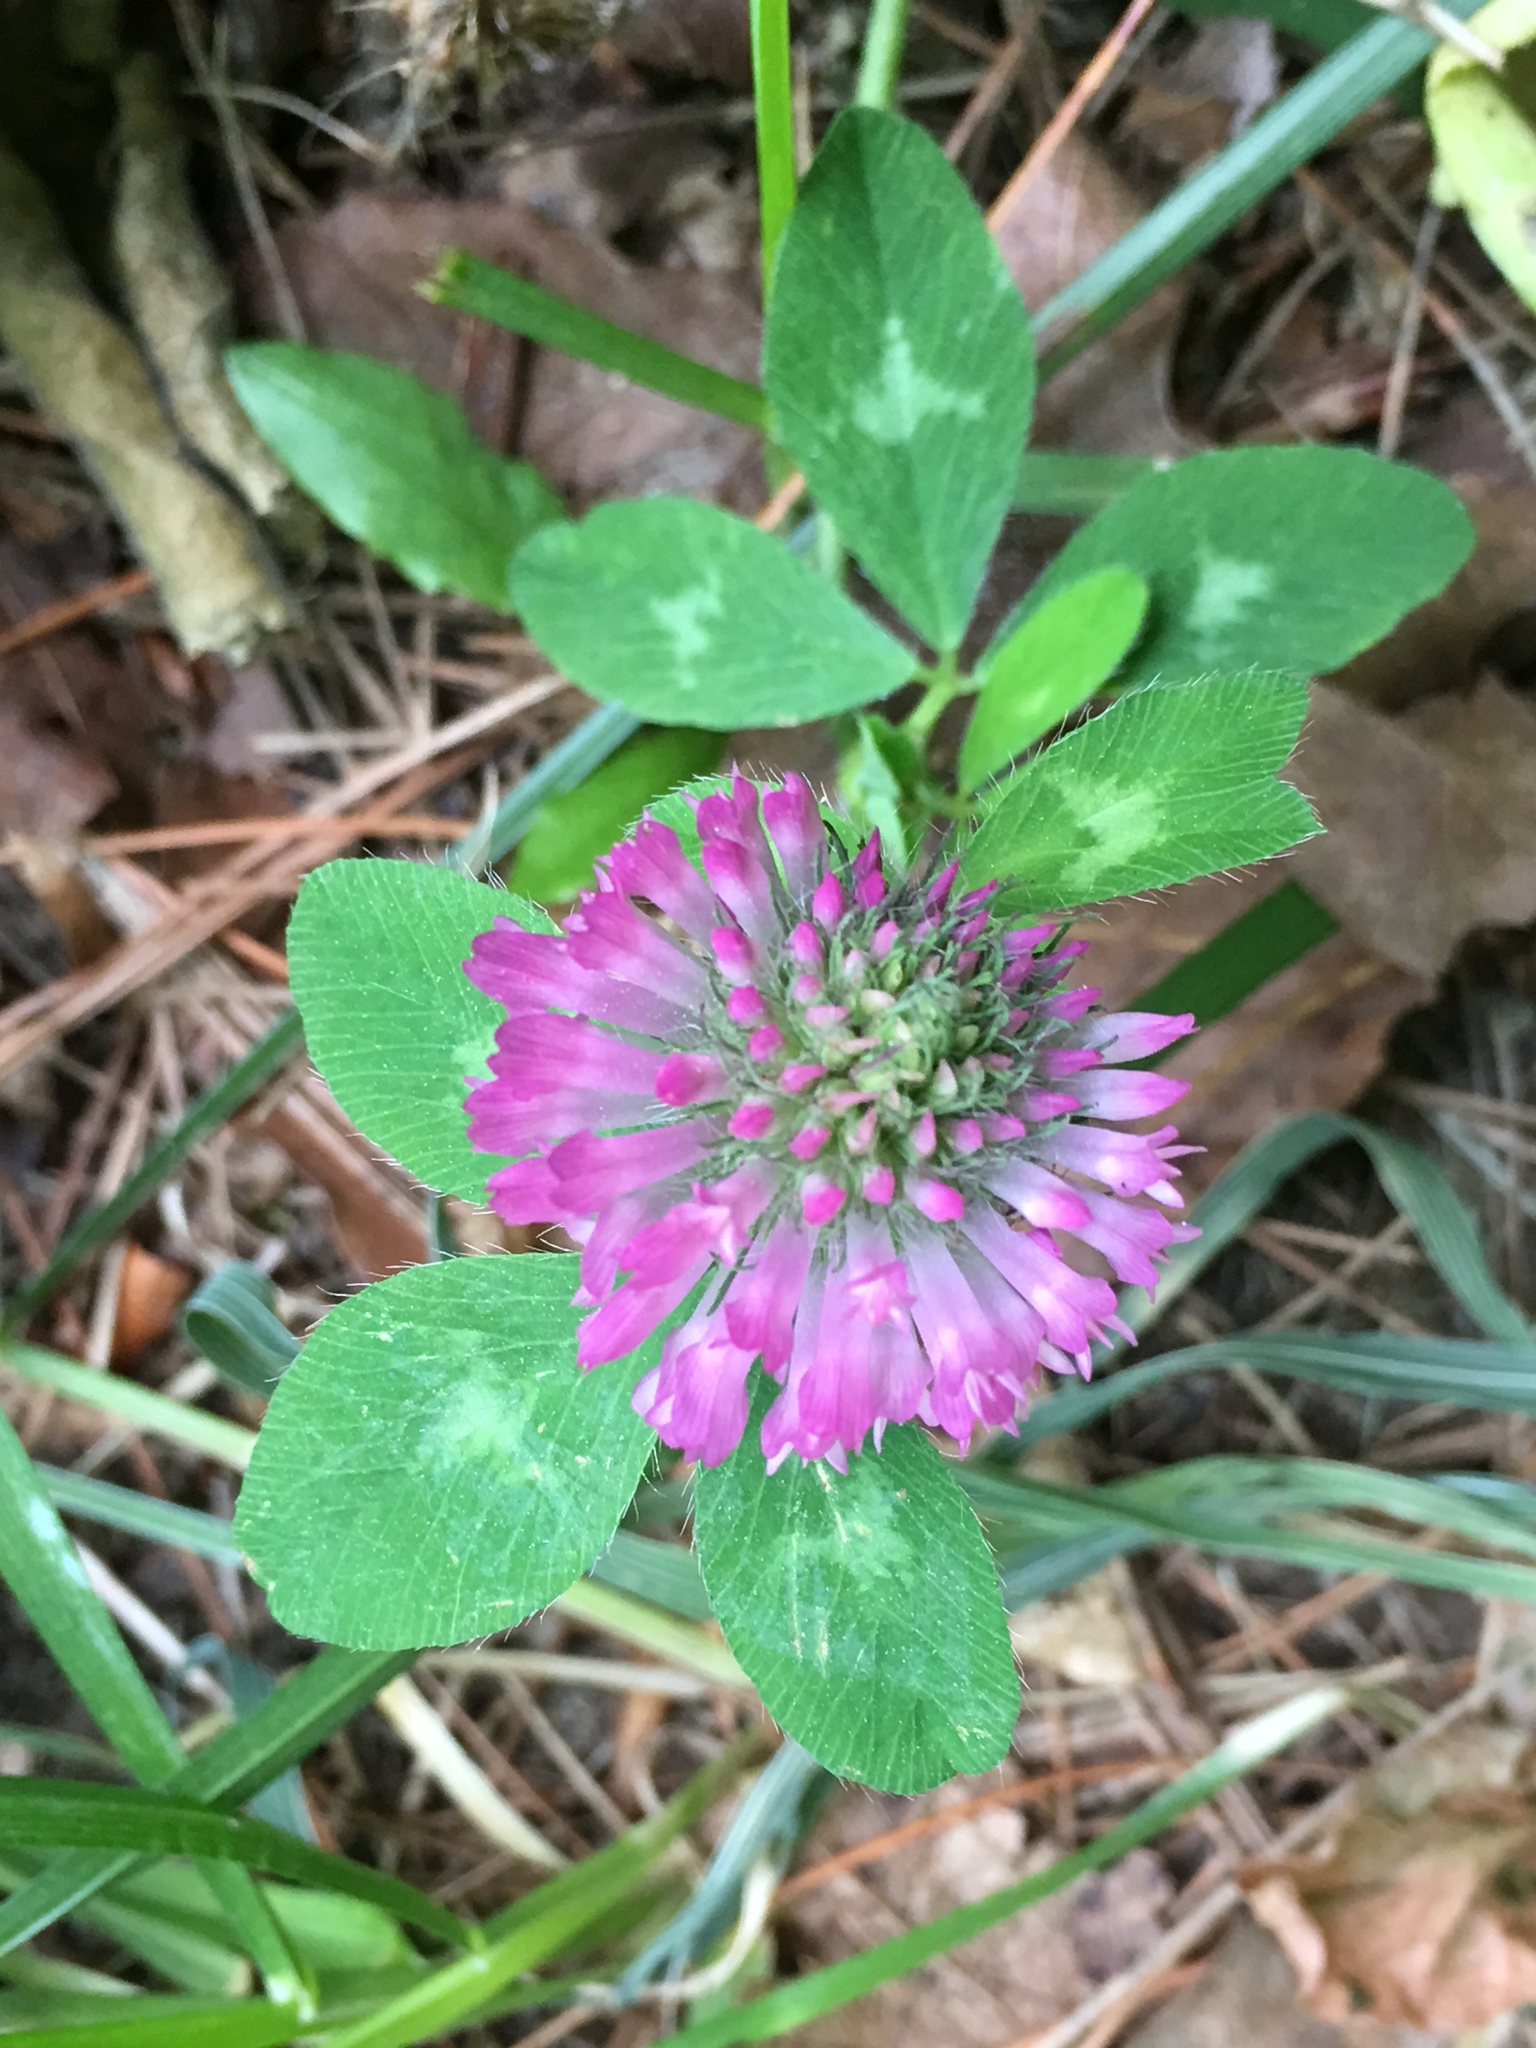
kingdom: Plantae
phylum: Tracheophyta
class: Magnoliopsida
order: Fabales
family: Fabaceae
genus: Trifolium
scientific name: Trifolium pratense
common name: Red clover
